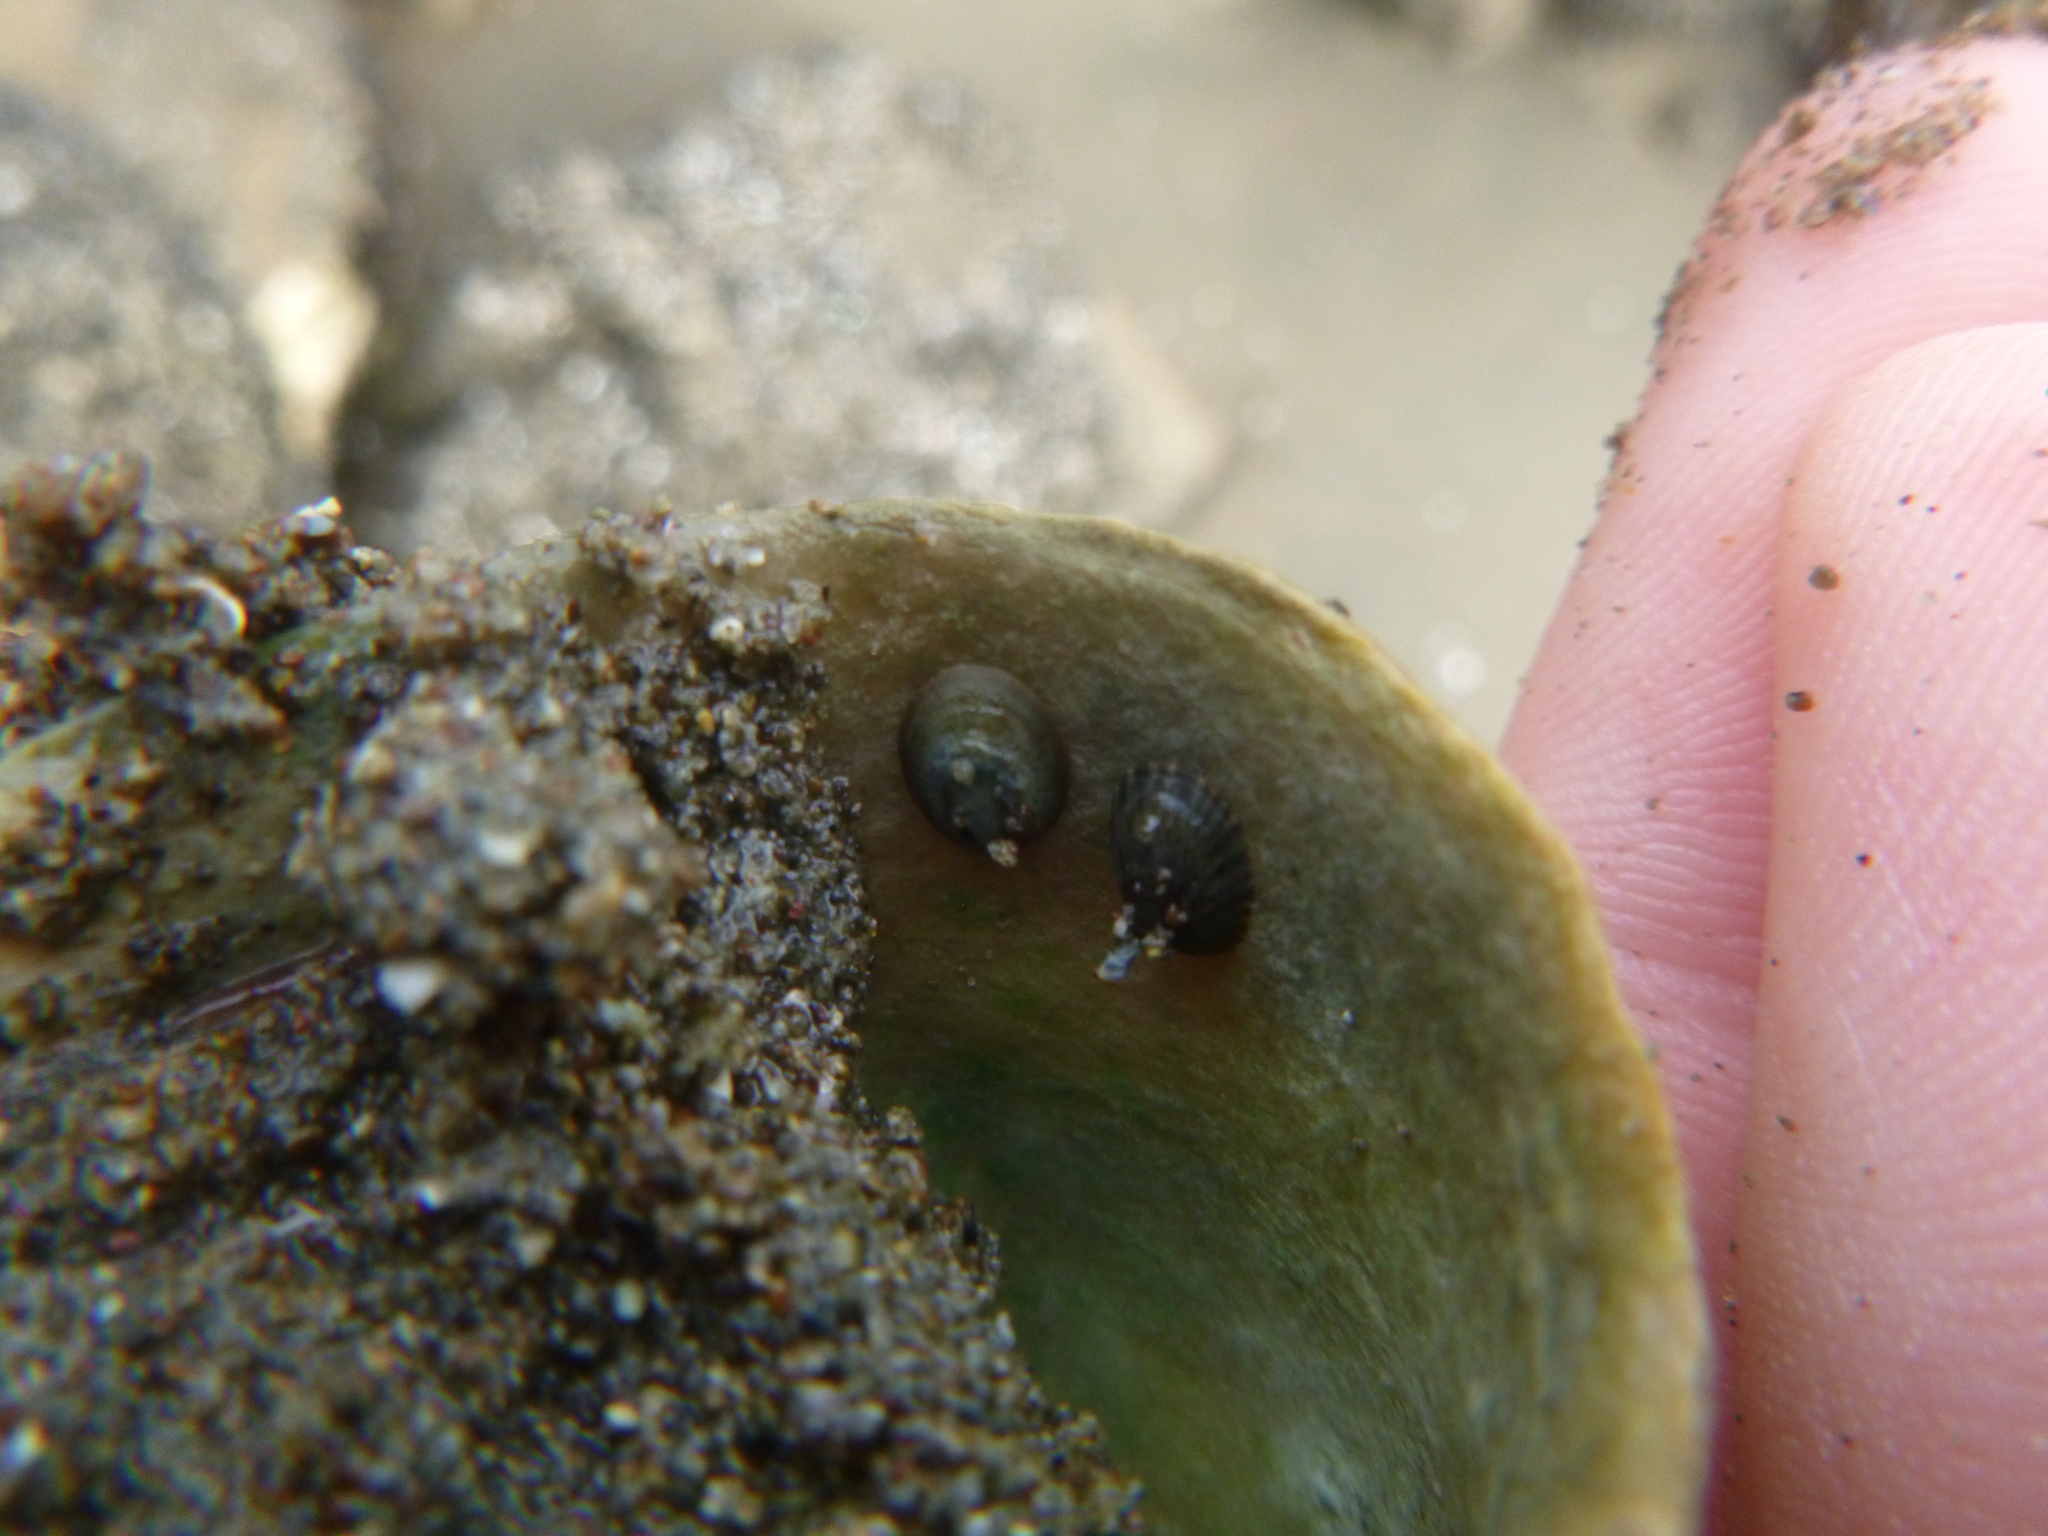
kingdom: Animalia
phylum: Mollusca
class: Gastropoda
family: Lottiidae
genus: Notoacmea
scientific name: Notoacmea
